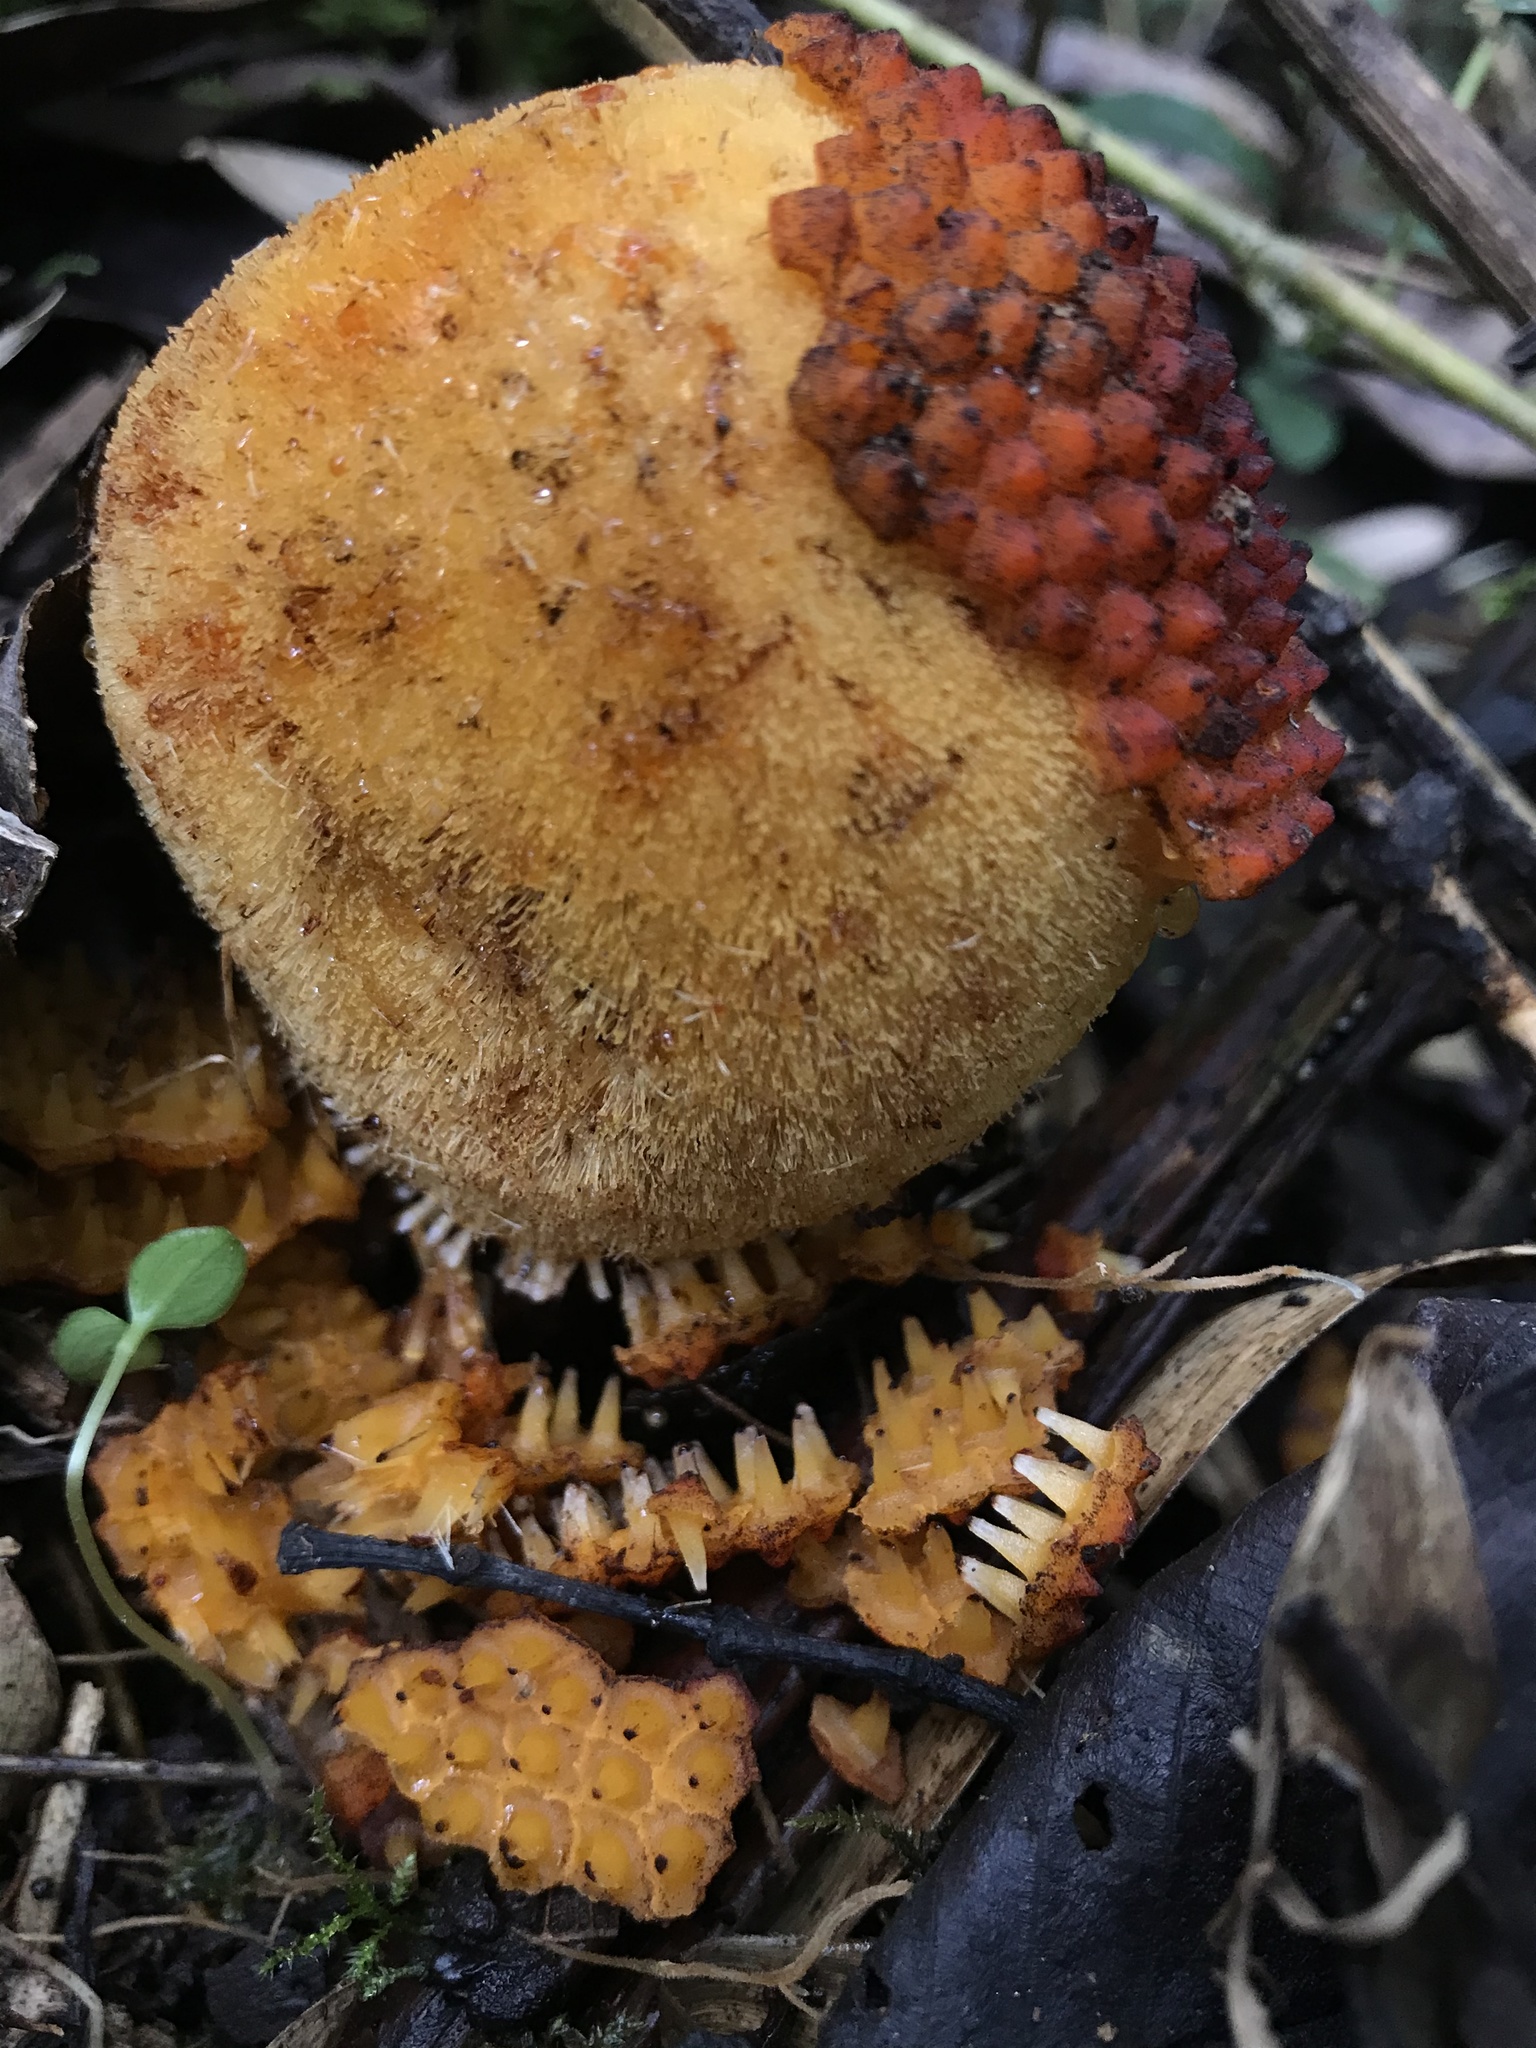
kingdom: Plantae
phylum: Tracheophyta
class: Magnoliopsida
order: Santalales
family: Balanophoraceae
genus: Corynaea
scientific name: Corynaea crassa
